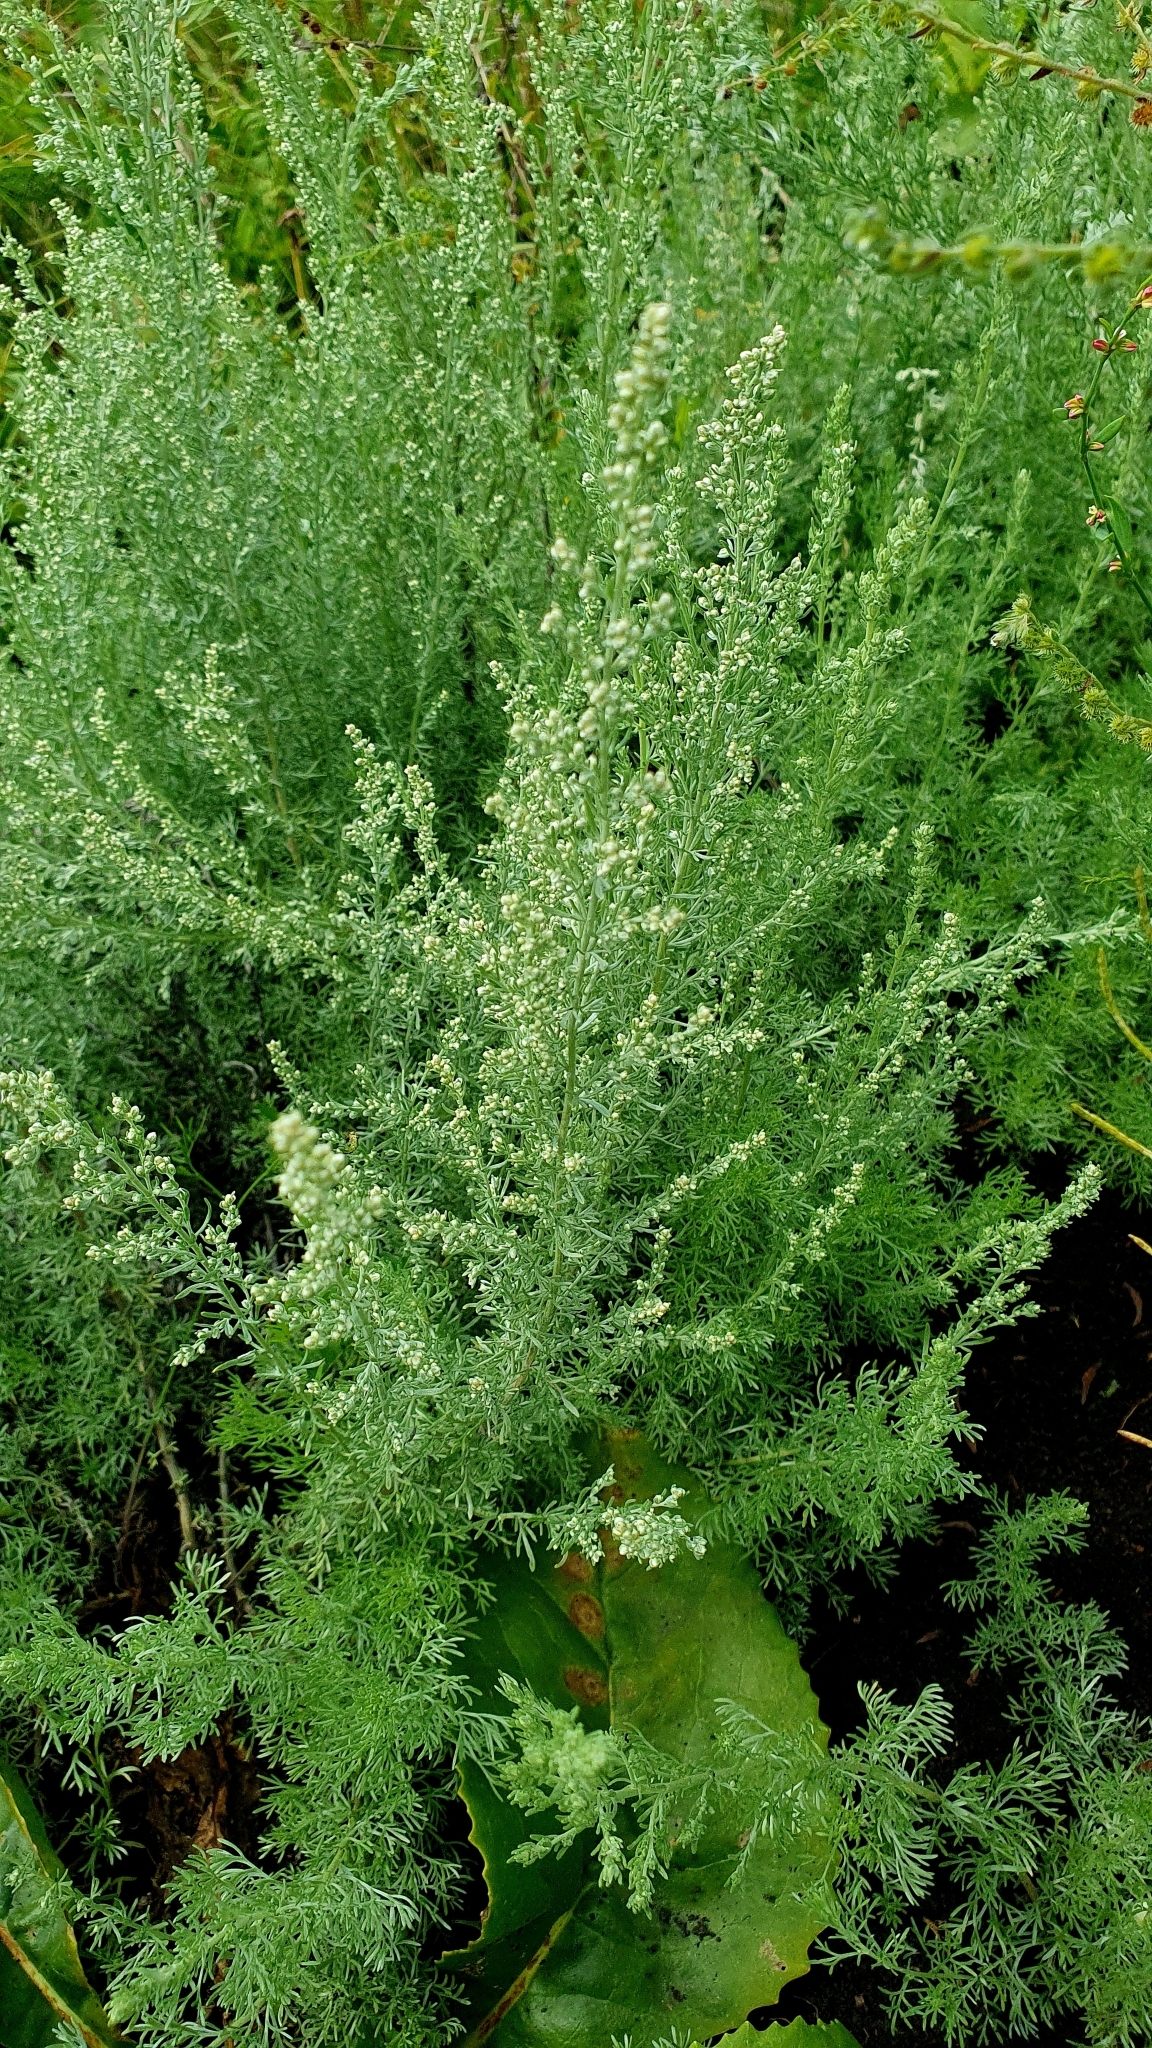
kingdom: Plantae
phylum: Tracheophyta
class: Magnoliopsida
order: Asterales
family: Asteraceae
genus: Artemisia
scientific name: Artemisia austriaca
